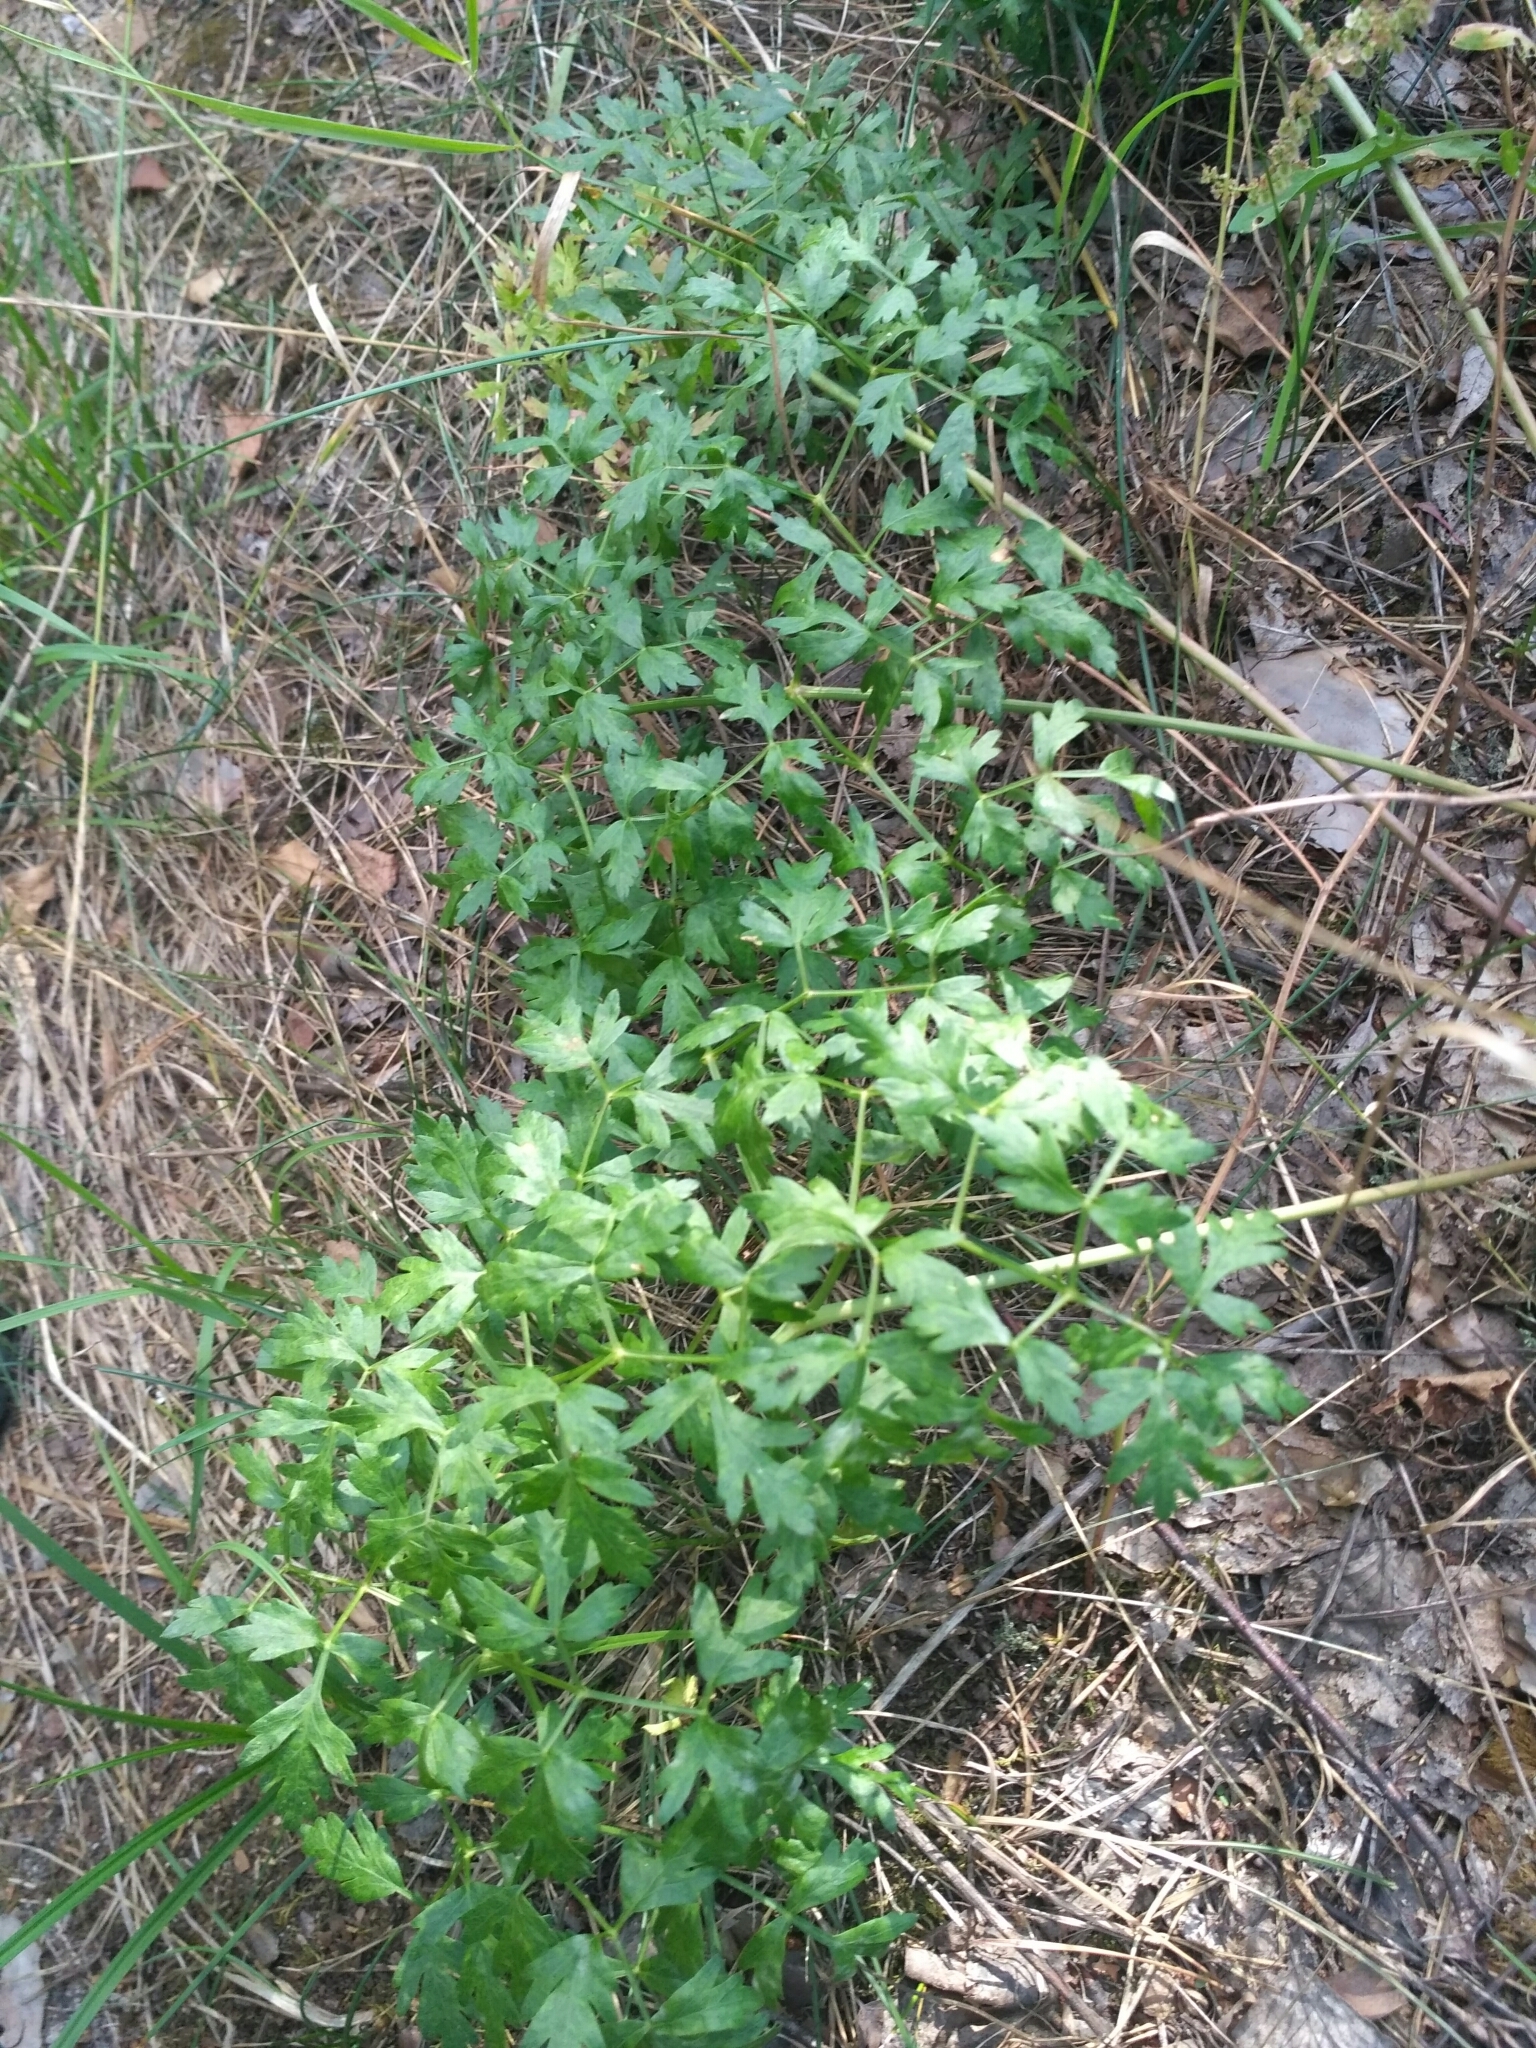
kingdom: Plantae
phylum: Tracheophyta
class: Magnoliopsida
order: Apiales
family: Apiaceae
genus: Oreoselinum
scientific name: Oreoselinum nigrum
